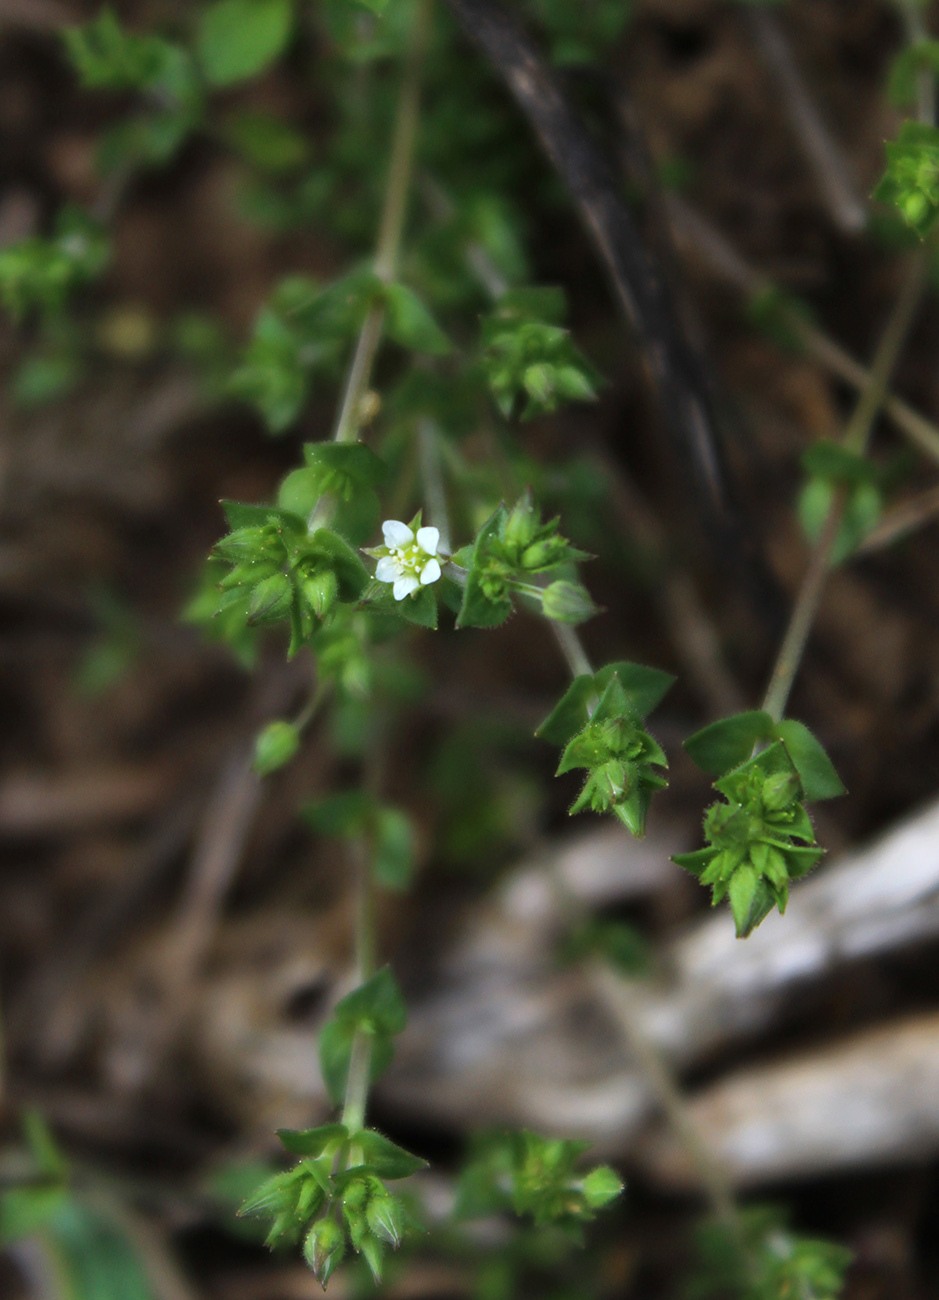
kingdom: Plantae
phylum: Tracheophyta
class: Magnoliopsida
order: Caryophyllales
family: Caryophyllaceae
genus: Arenaria
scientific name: Arenaria serpyllifolia
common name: Thyme-leaved sandwort
